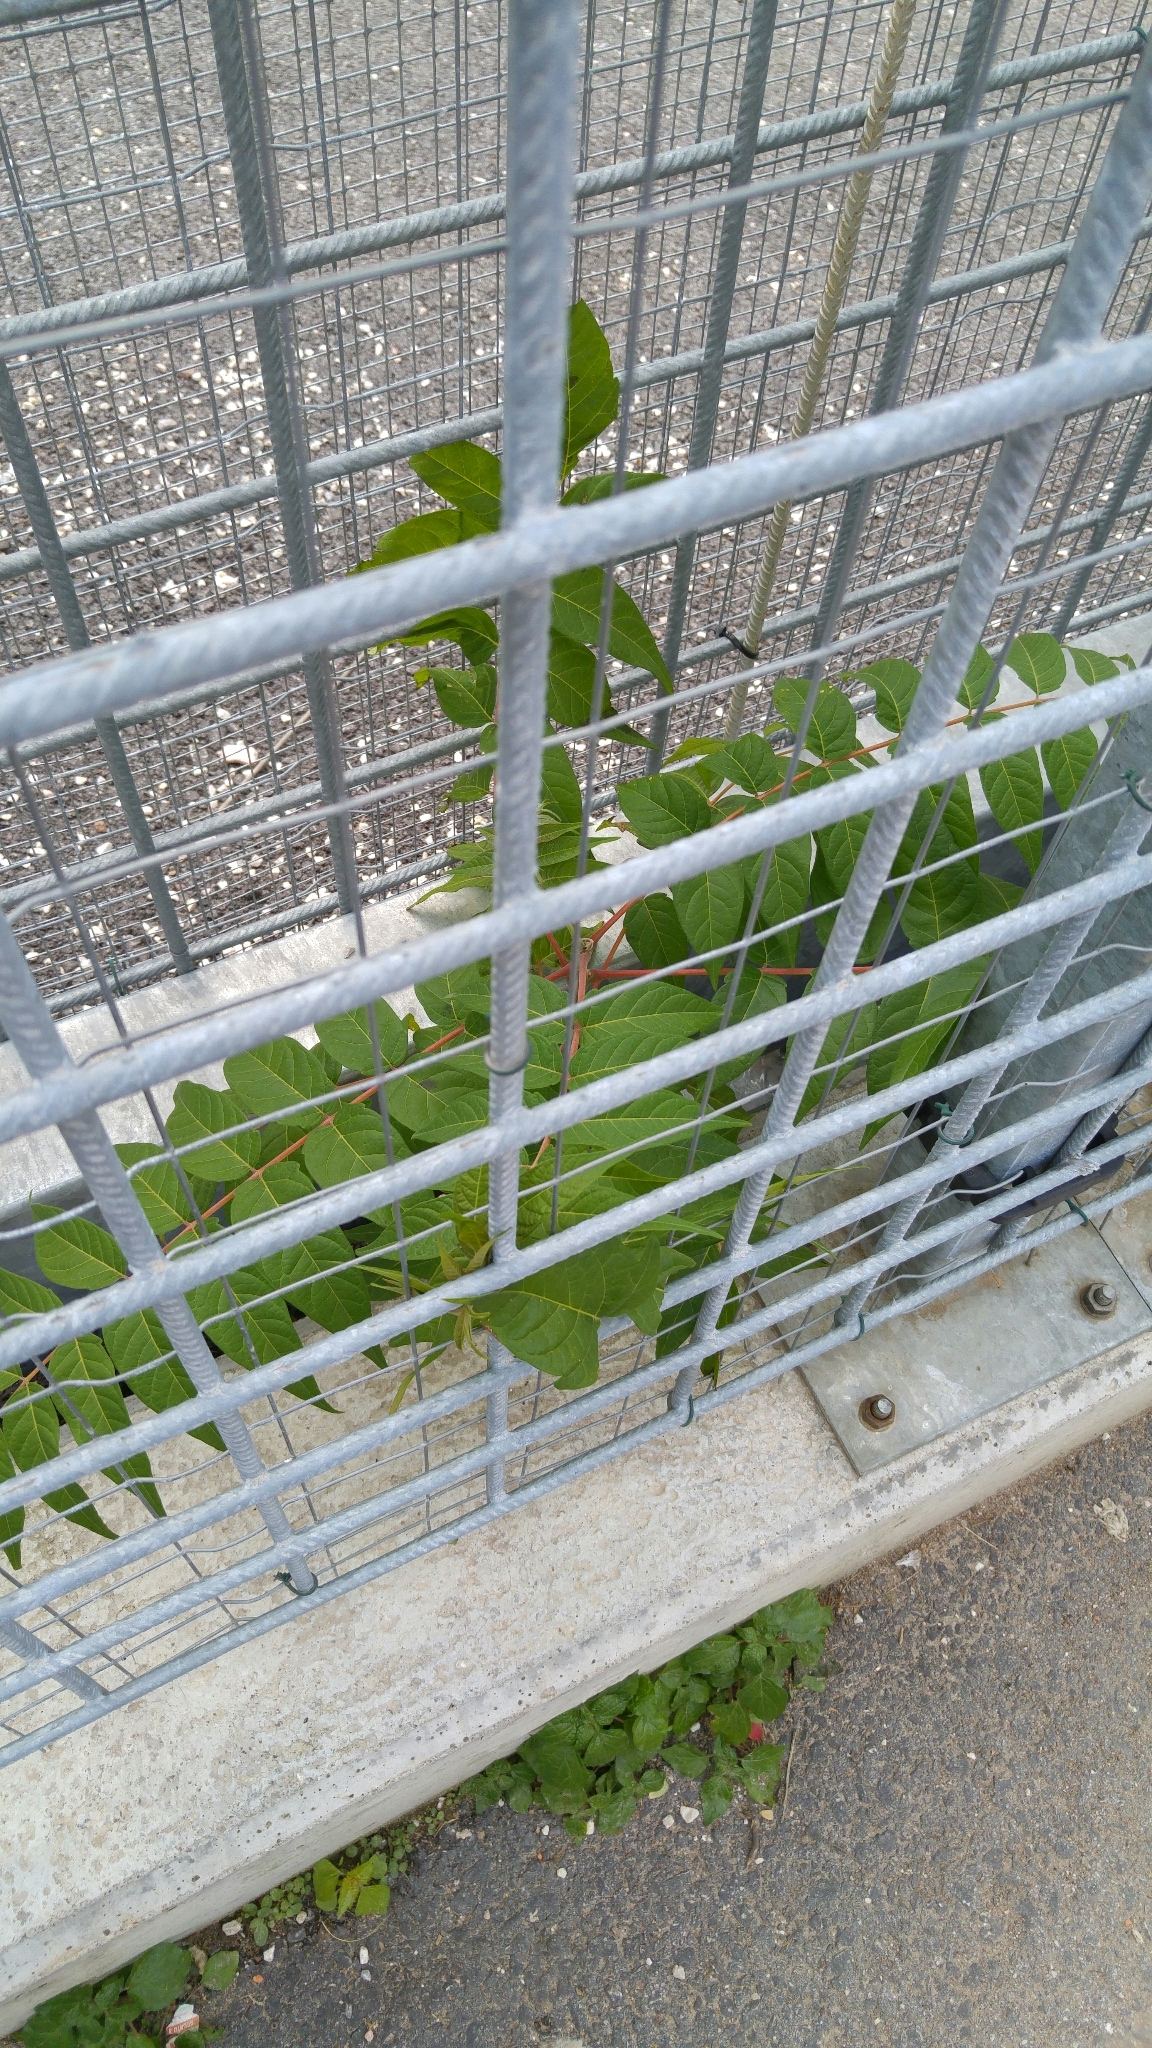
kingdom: Plantae
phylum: Tracheophyta
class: Magnoliopsida
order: Sapindales
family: Simaroubaceae
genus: Ailanthus
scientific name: Ailanthus altissima
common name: Tree-of-heaven
